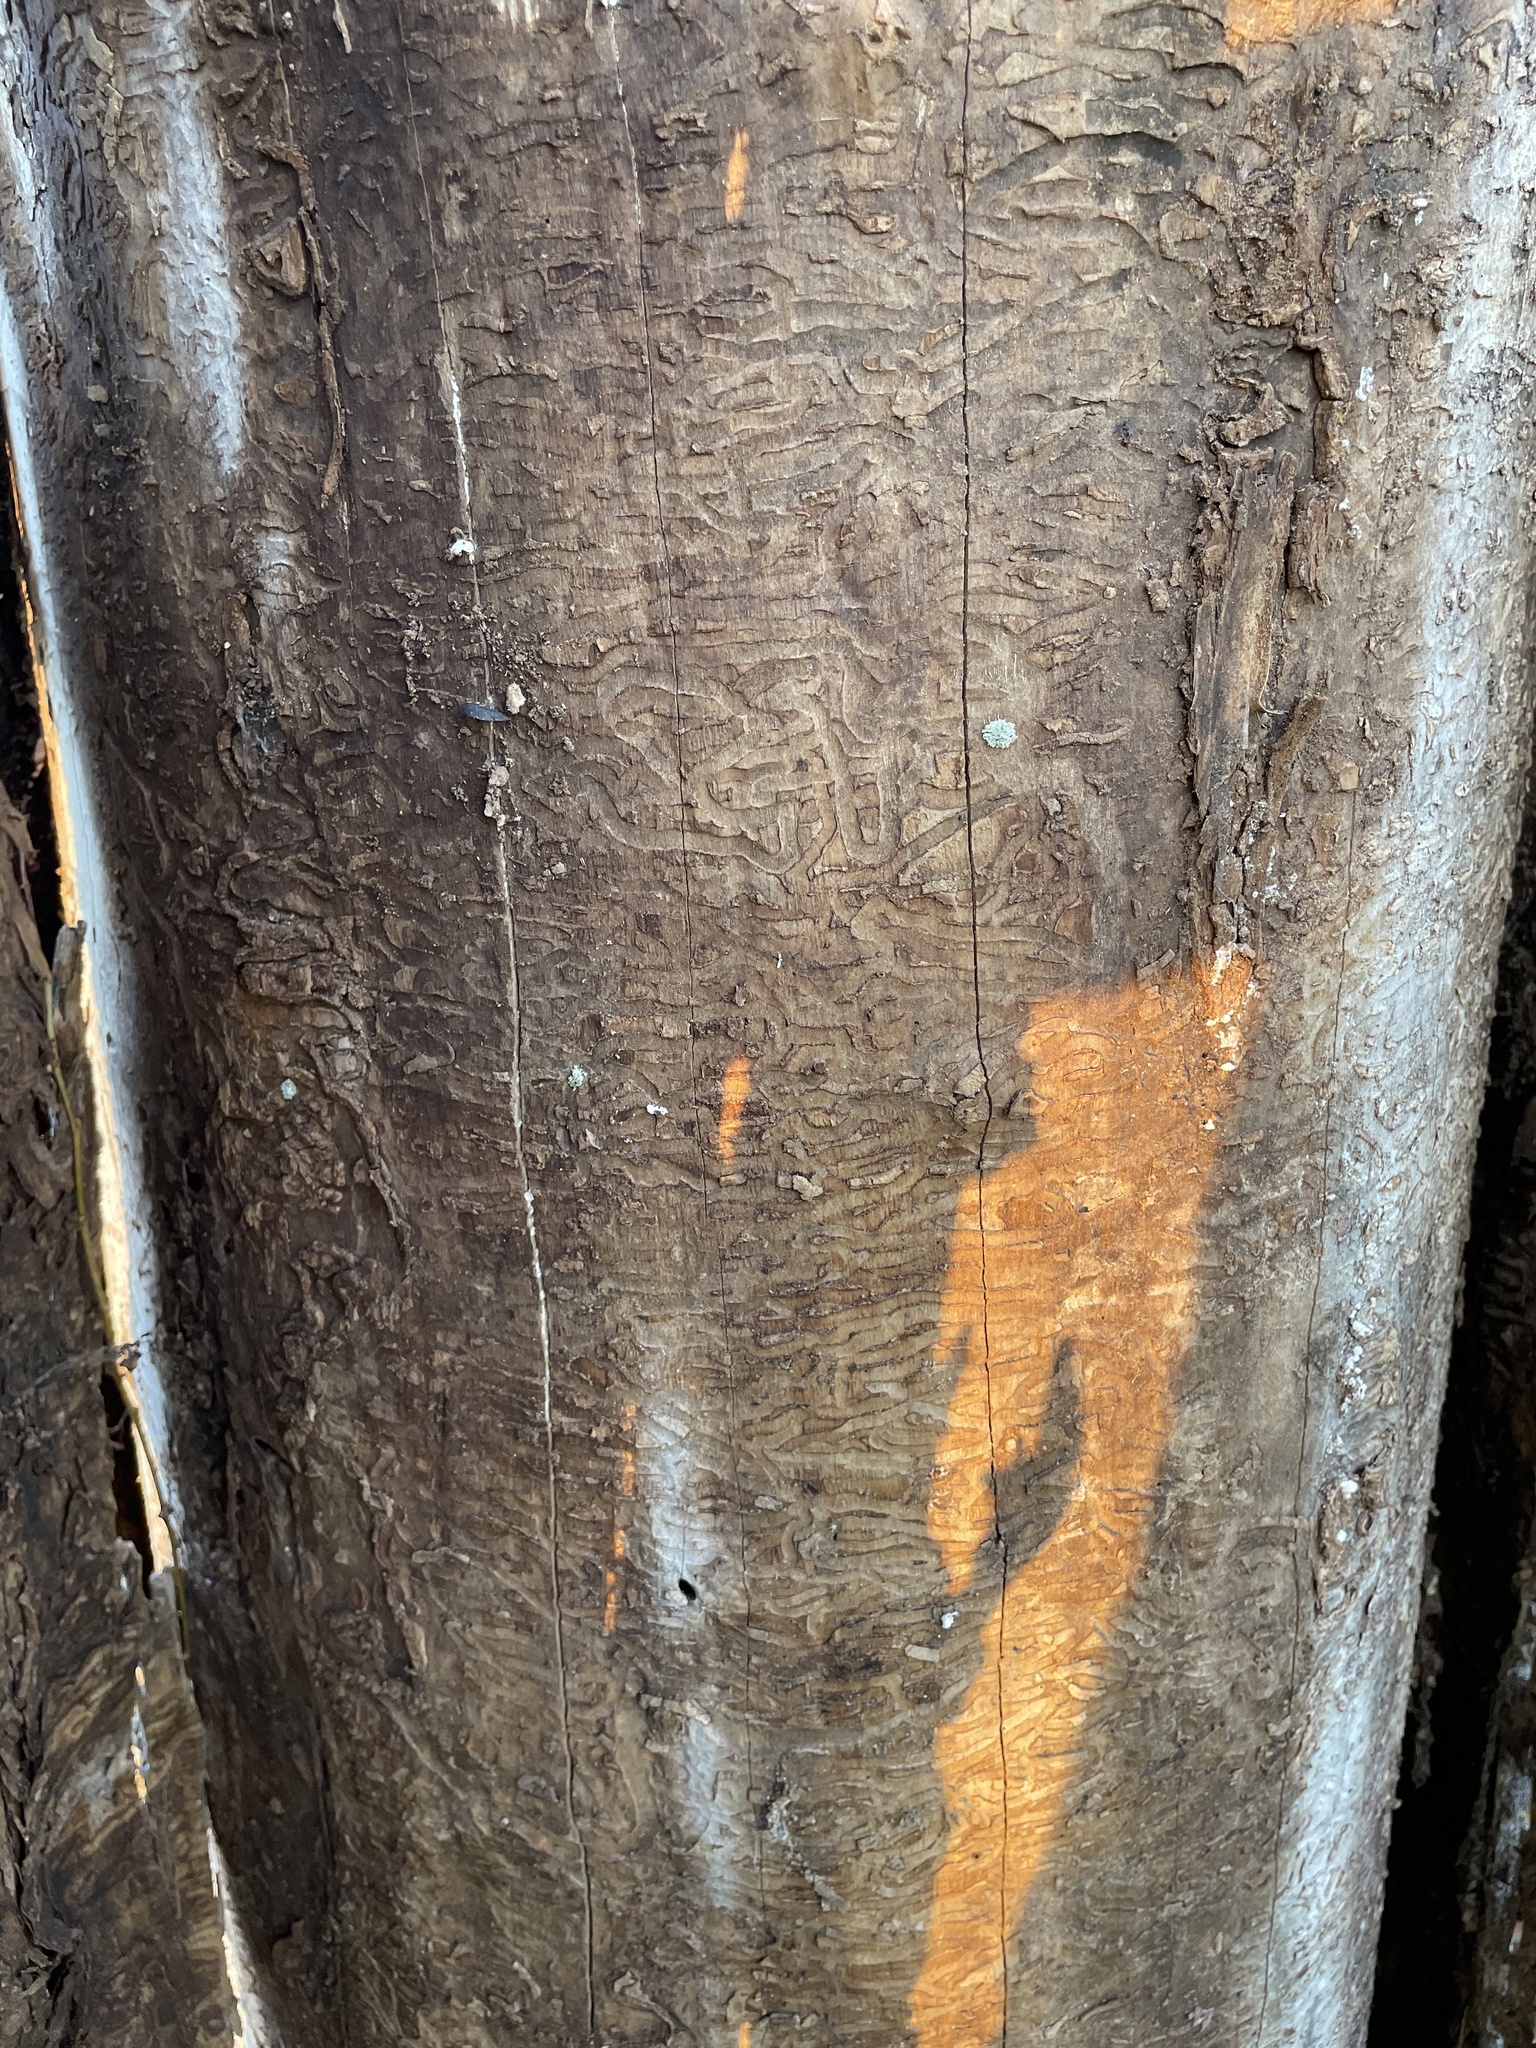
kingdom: Animalia
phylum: Arthropoda
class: Insecta
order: Coleoptera
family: Buprestidae
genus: Agrilus
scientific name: Agrilus planipennis
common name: Emerald ash borer
